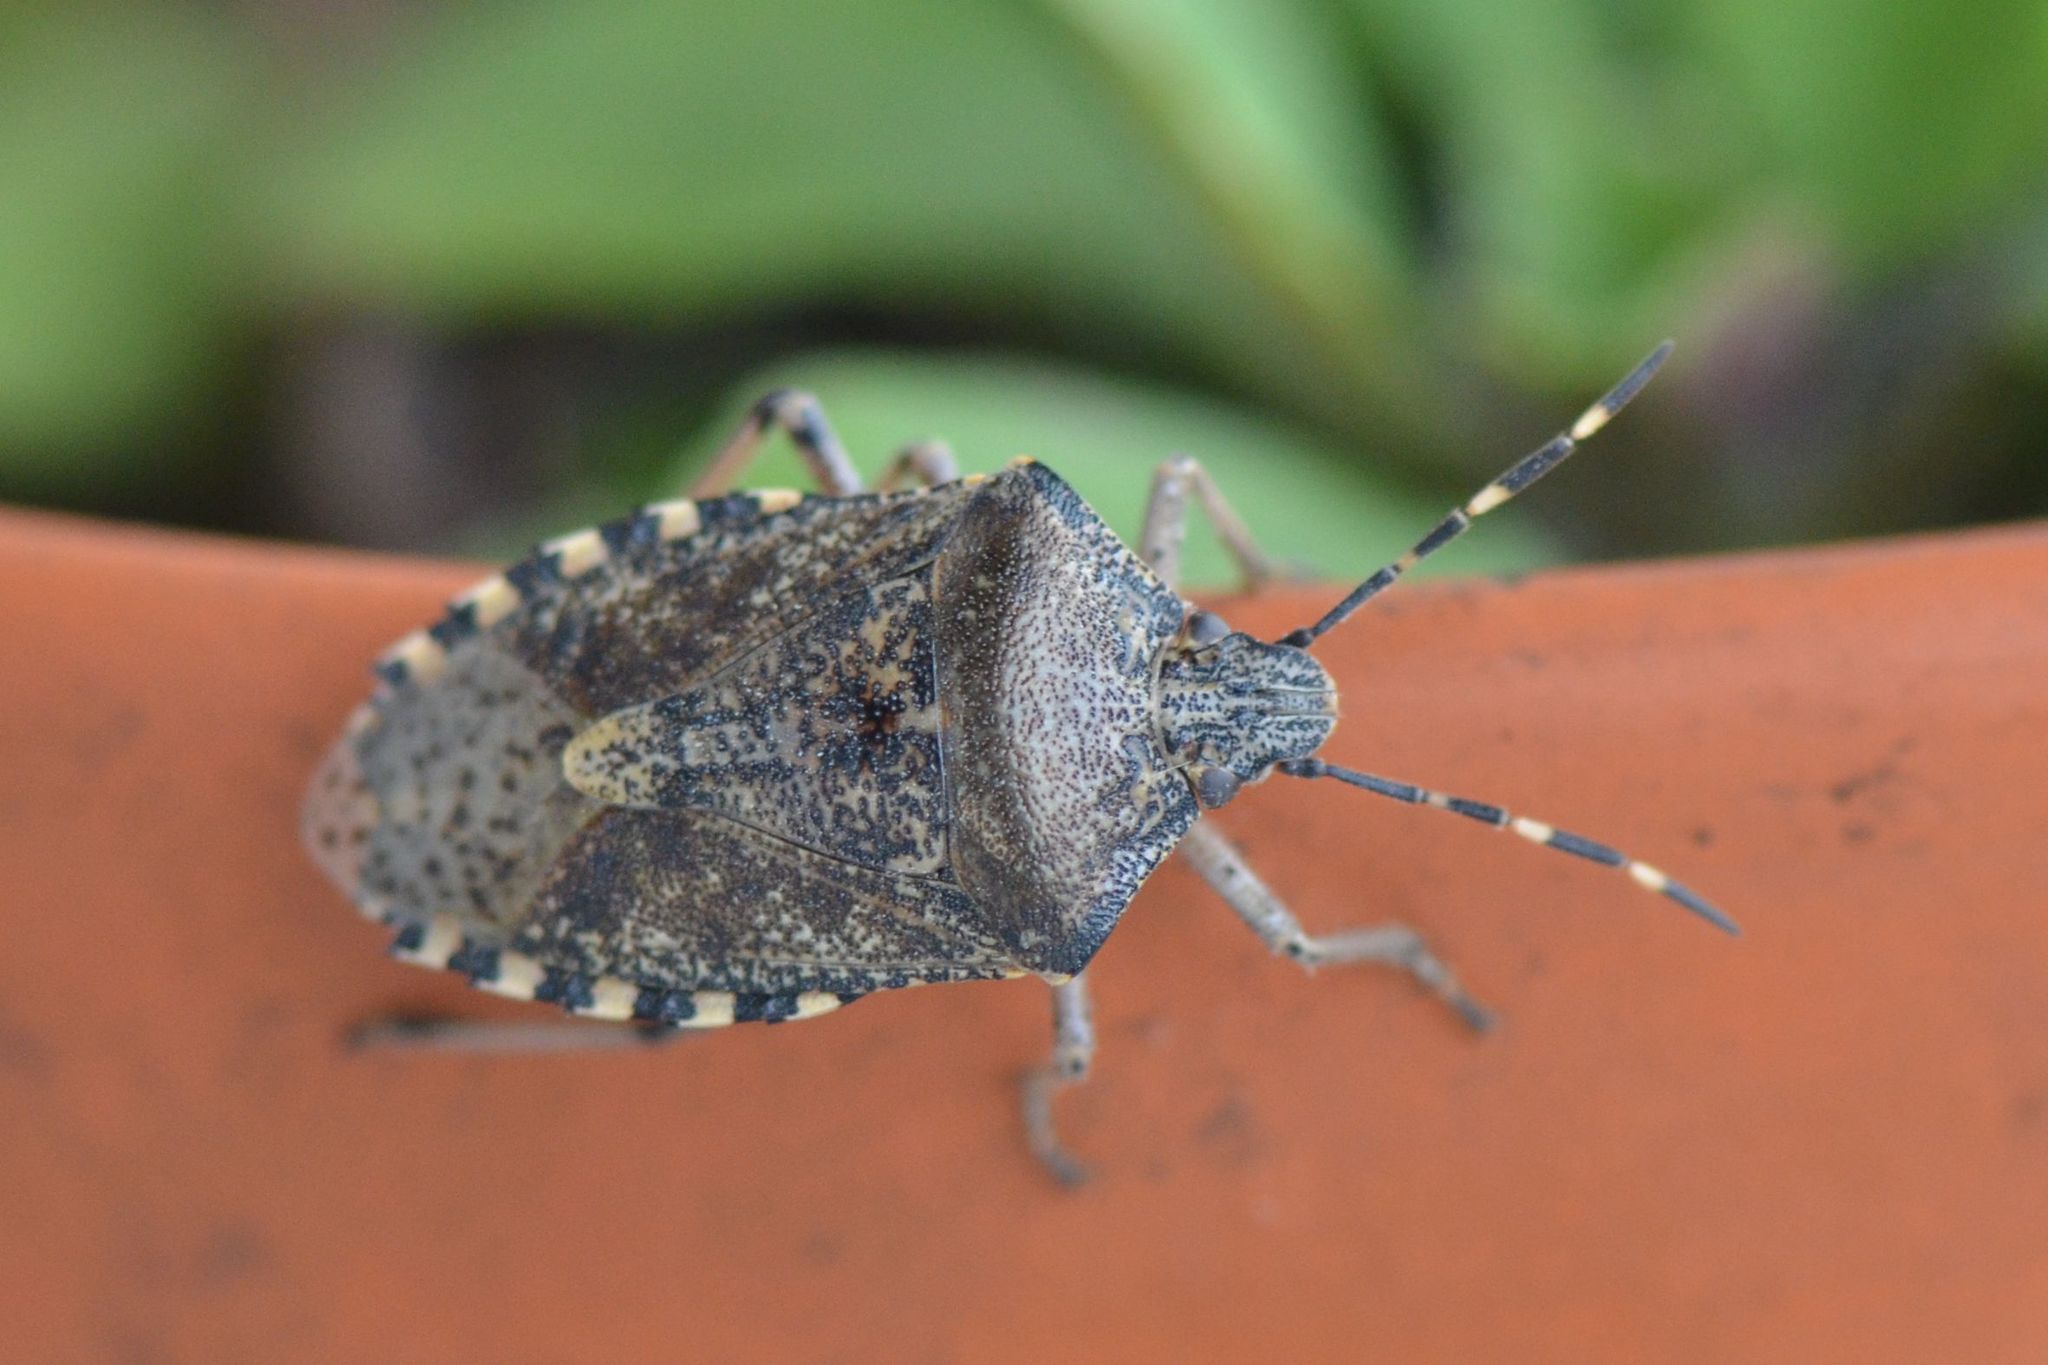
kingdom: Animalia
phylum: Arthropoda
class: Insecta
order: Hemiptera
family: Pentatomidae
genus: Rhaphigaster
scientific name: Rhaphigaster nebulosa
